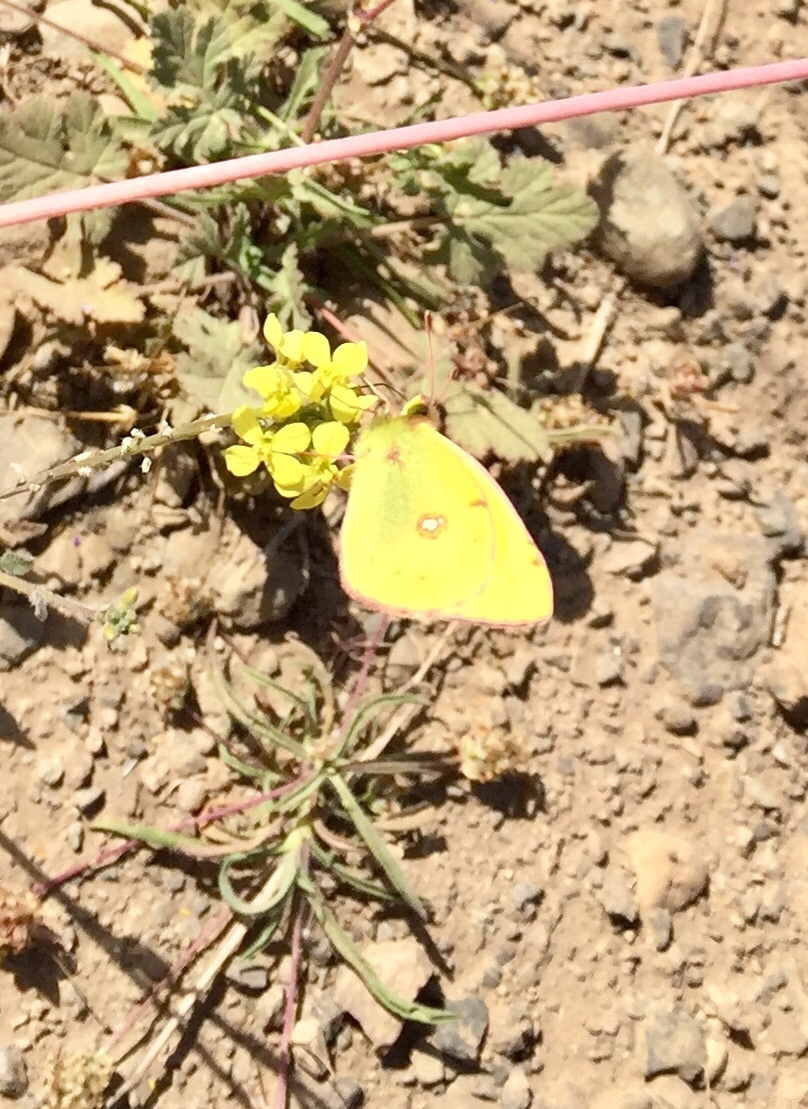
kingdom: Animalia
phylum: Arthropoda
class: Insecta
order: Lepidoptera
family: Pieridae
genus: Colias
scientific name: Colias croceus
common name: Clouded yellow
